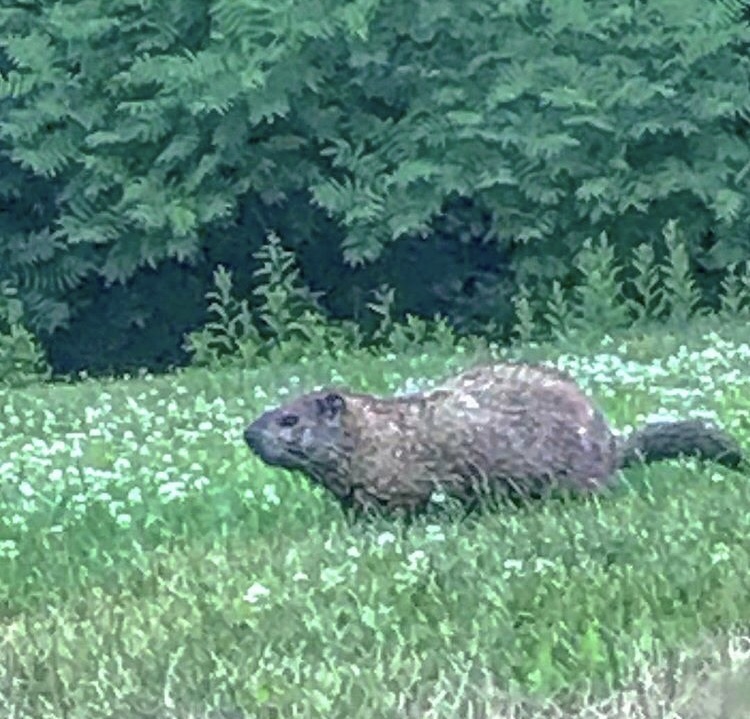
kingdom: Animalia
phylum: Chordata
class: Mammalia
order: Rodentia
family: Sciuridae
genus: Marmota
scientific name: Marmota monax
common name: Groundhog
